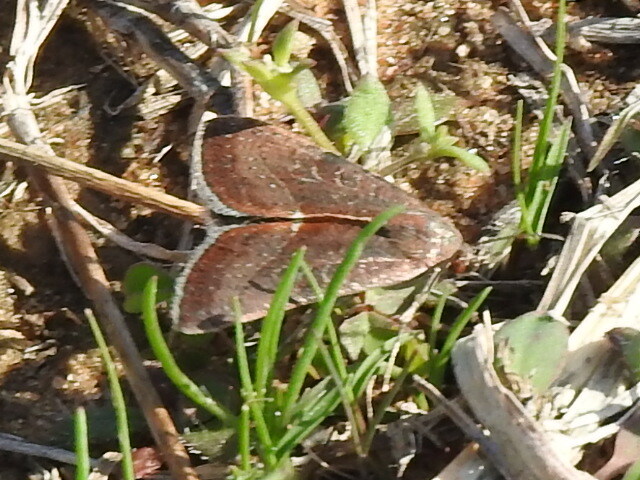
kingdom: Animalia
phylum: Arthropoda
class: Insecta
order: Lepidoptera
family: Noctuidae
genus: Galgula
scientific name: Galgula partita
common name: Wedgeling
